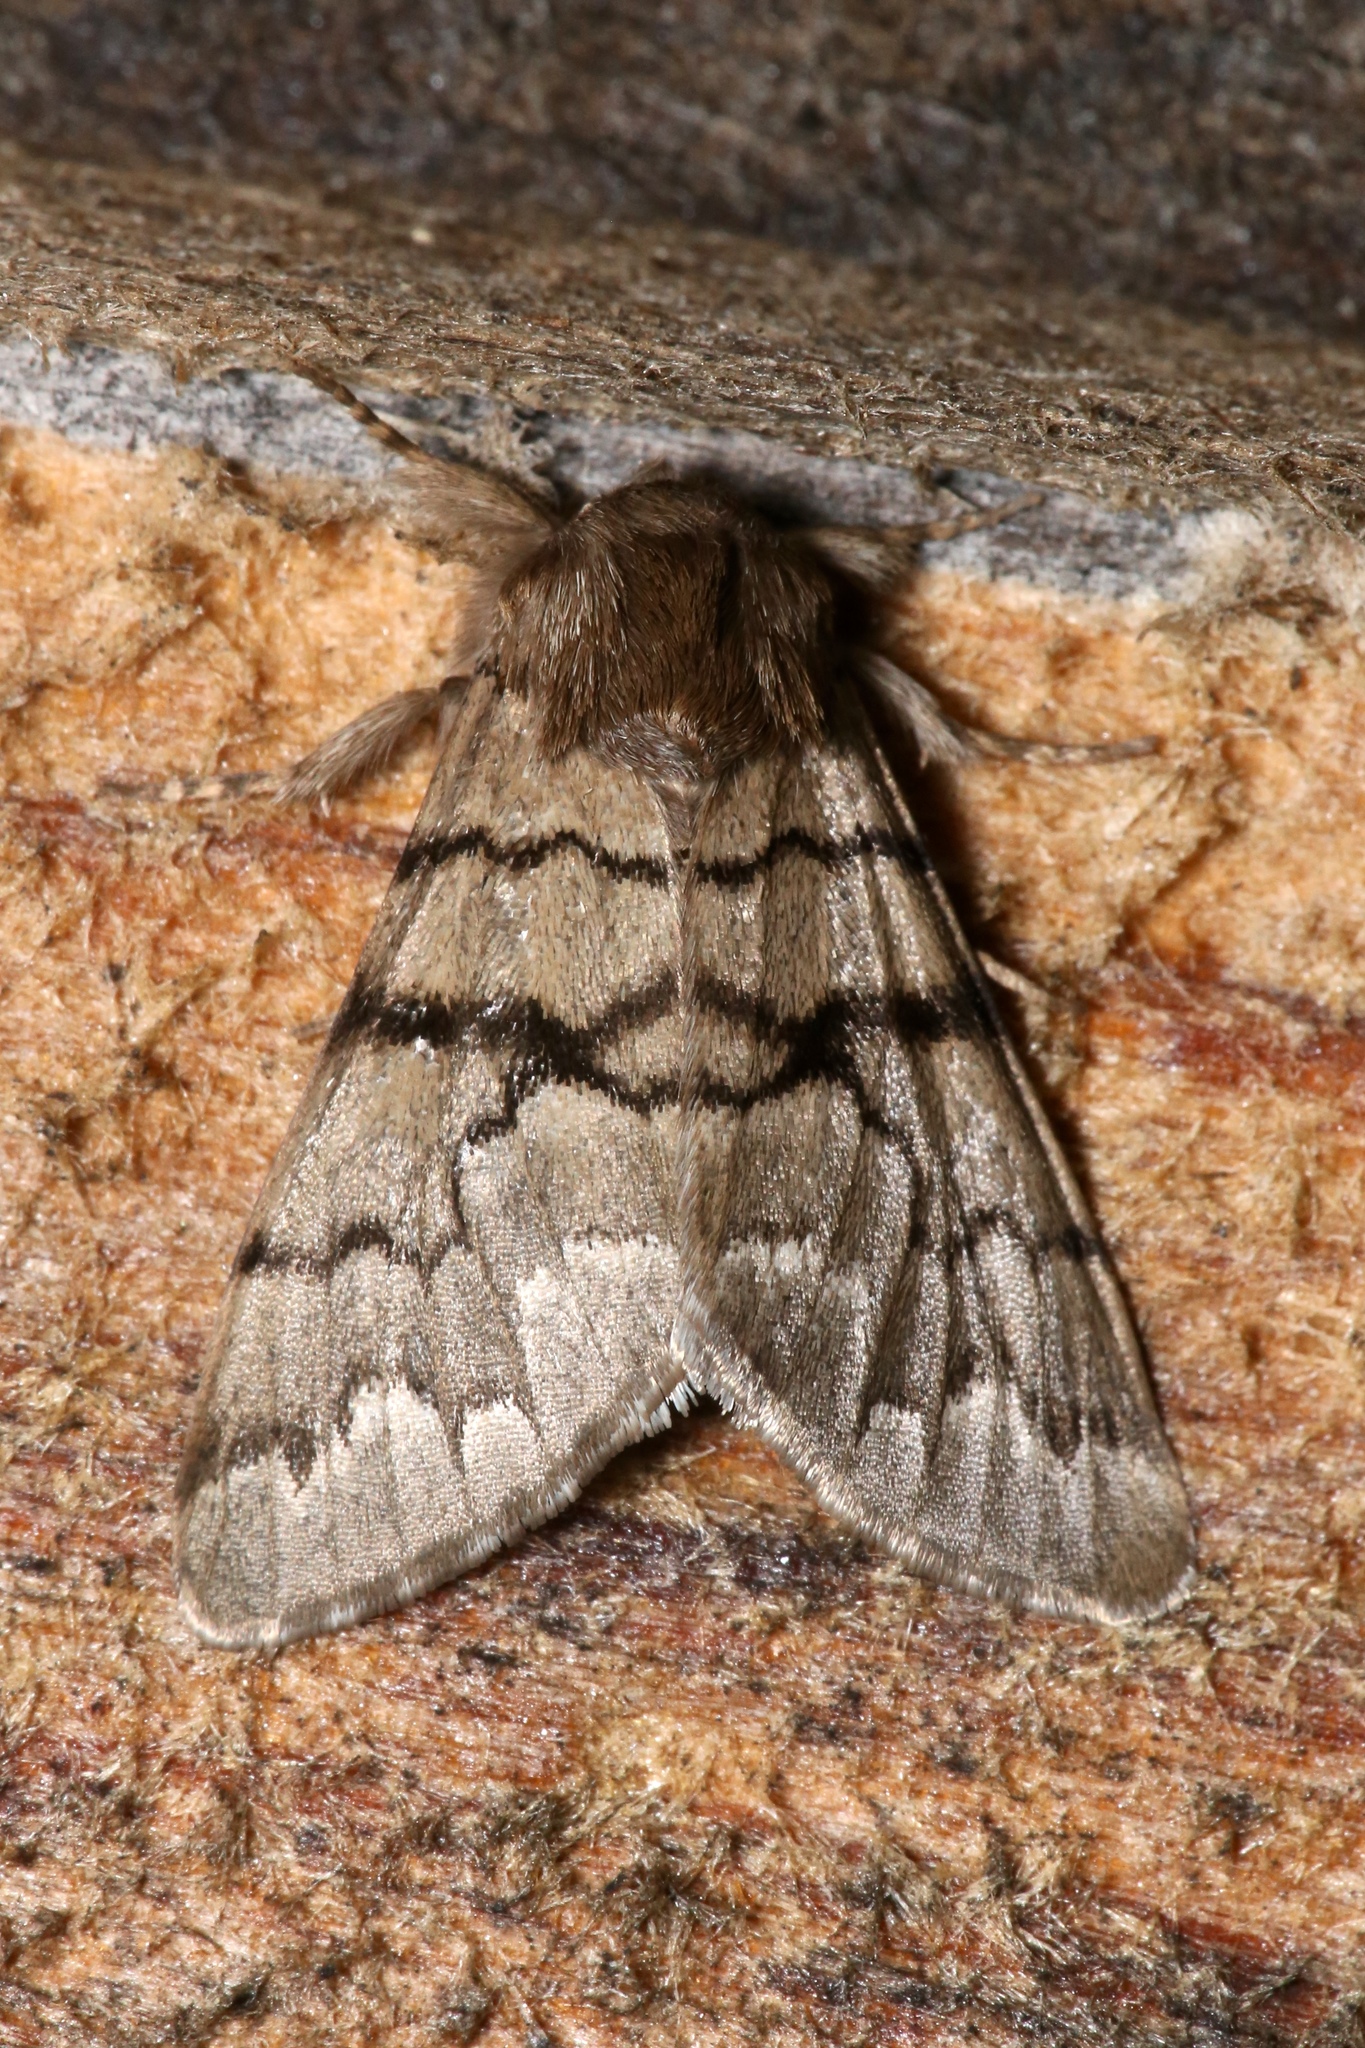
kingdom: Animalia
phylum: Arthropoda
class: Insecta
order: Lepidoptera
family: Noctuidae
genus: Panthea
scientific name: Panthea furcilla
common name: Eastern panthea moth
